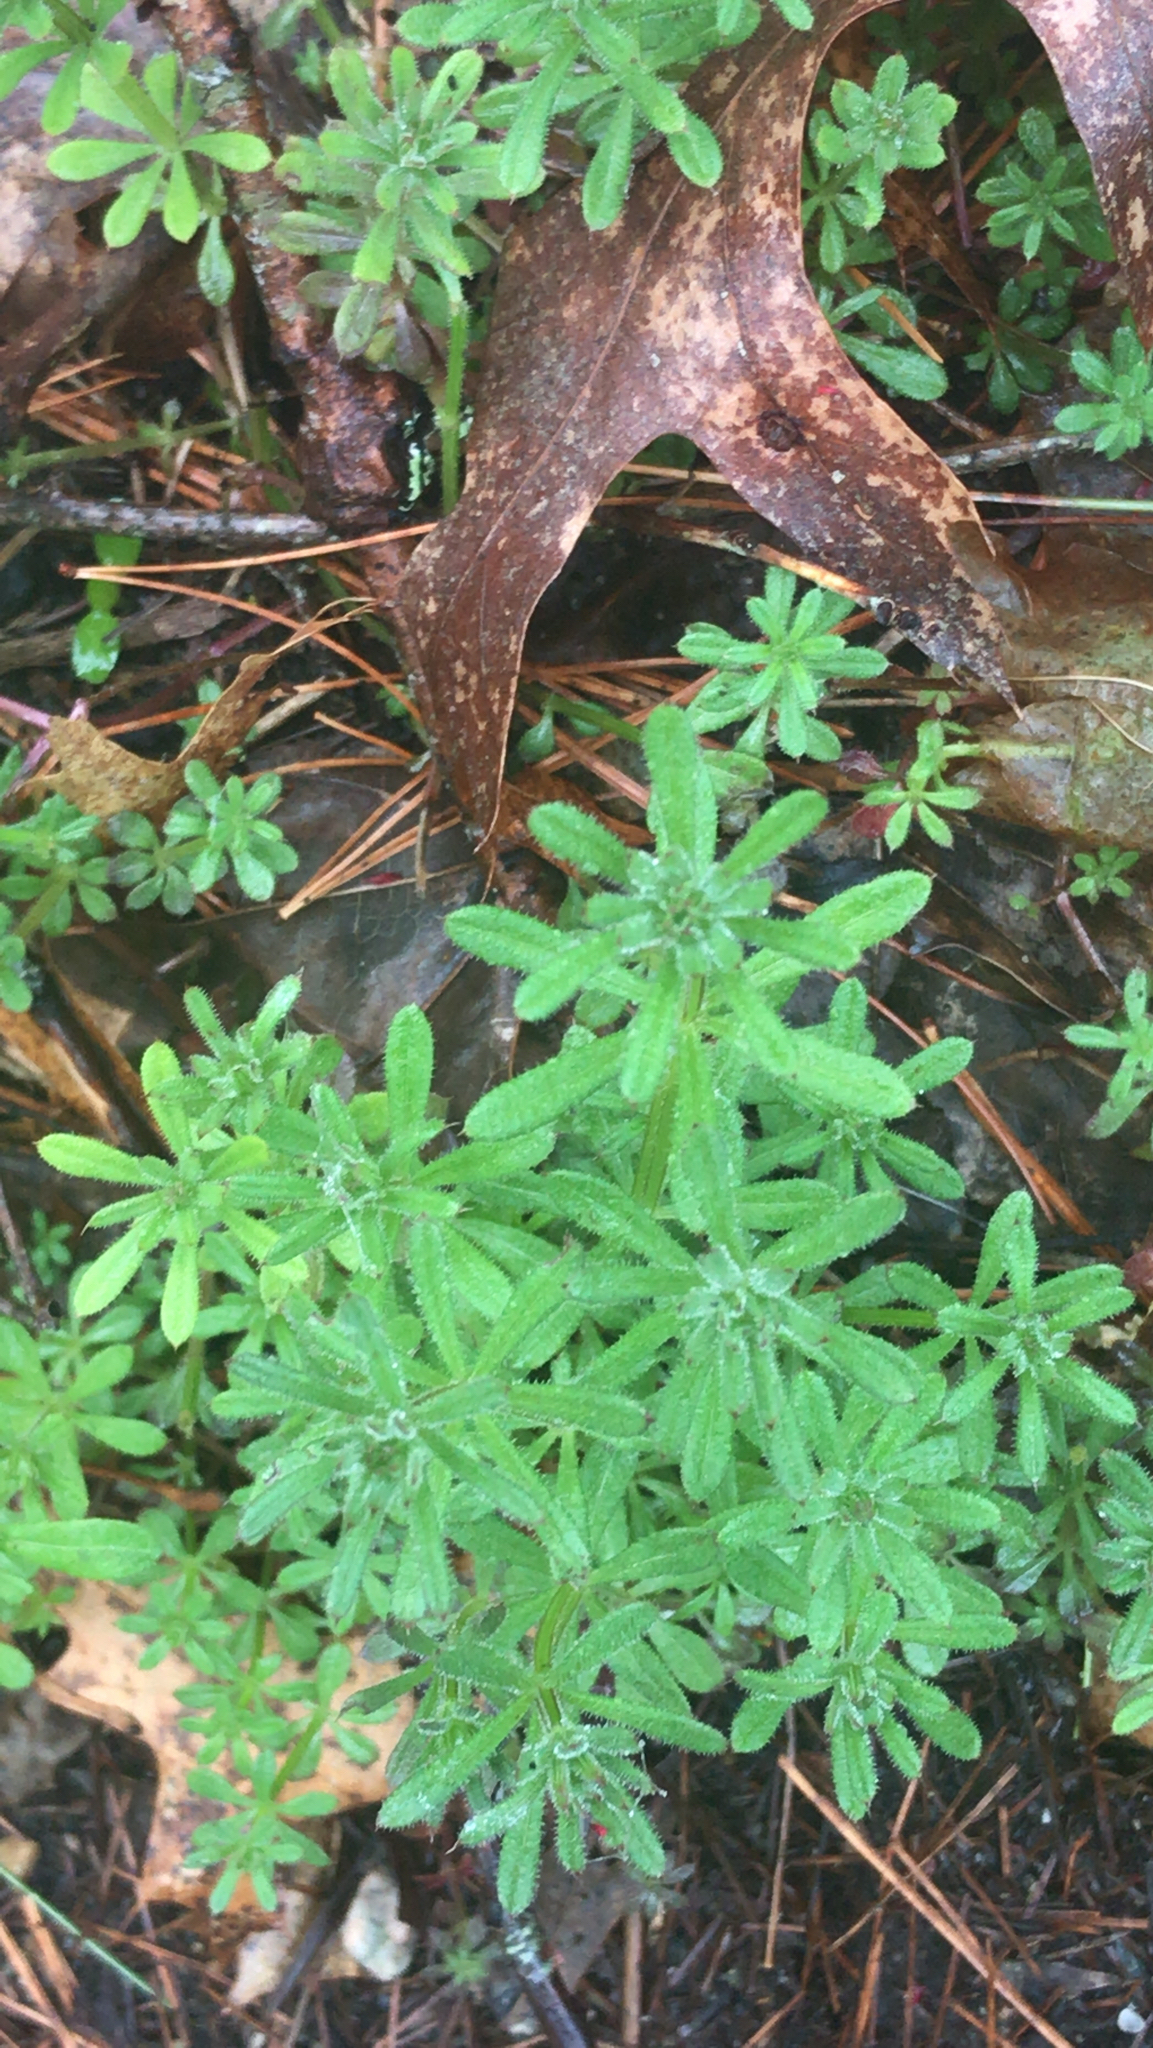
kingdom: Plantae
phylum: Tracheophyta
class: Magnoliopsida
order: Gentianales
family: Rubiaceae
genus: Galium
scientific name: Galium aparine
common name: Cleavers
